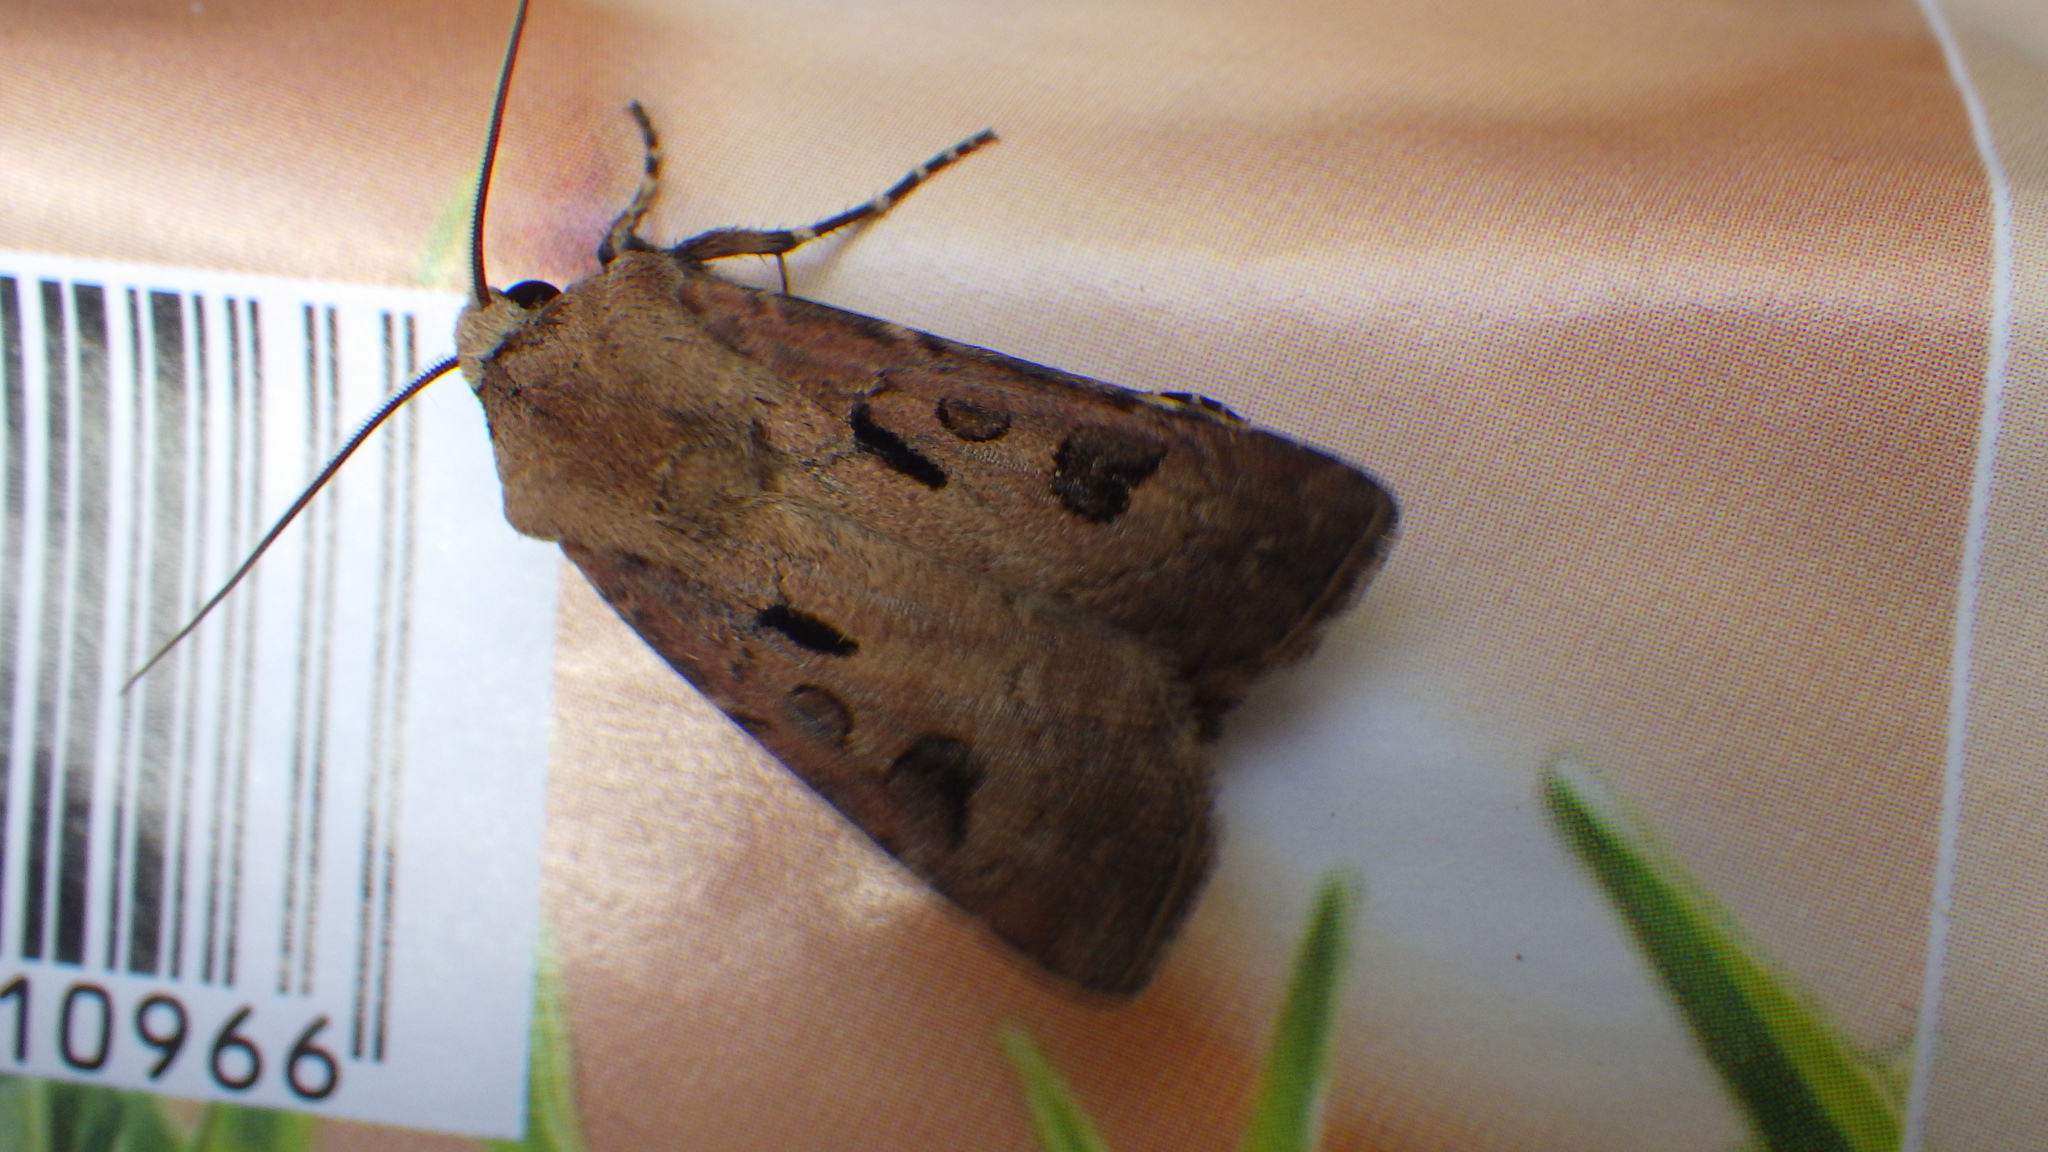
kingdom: Animalia
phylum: Arthropoda
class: Insecta
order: Lepidoptera
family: Noctuidae
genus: Agrotis
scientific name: Agrotis exclamationis
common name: Heart and dart
